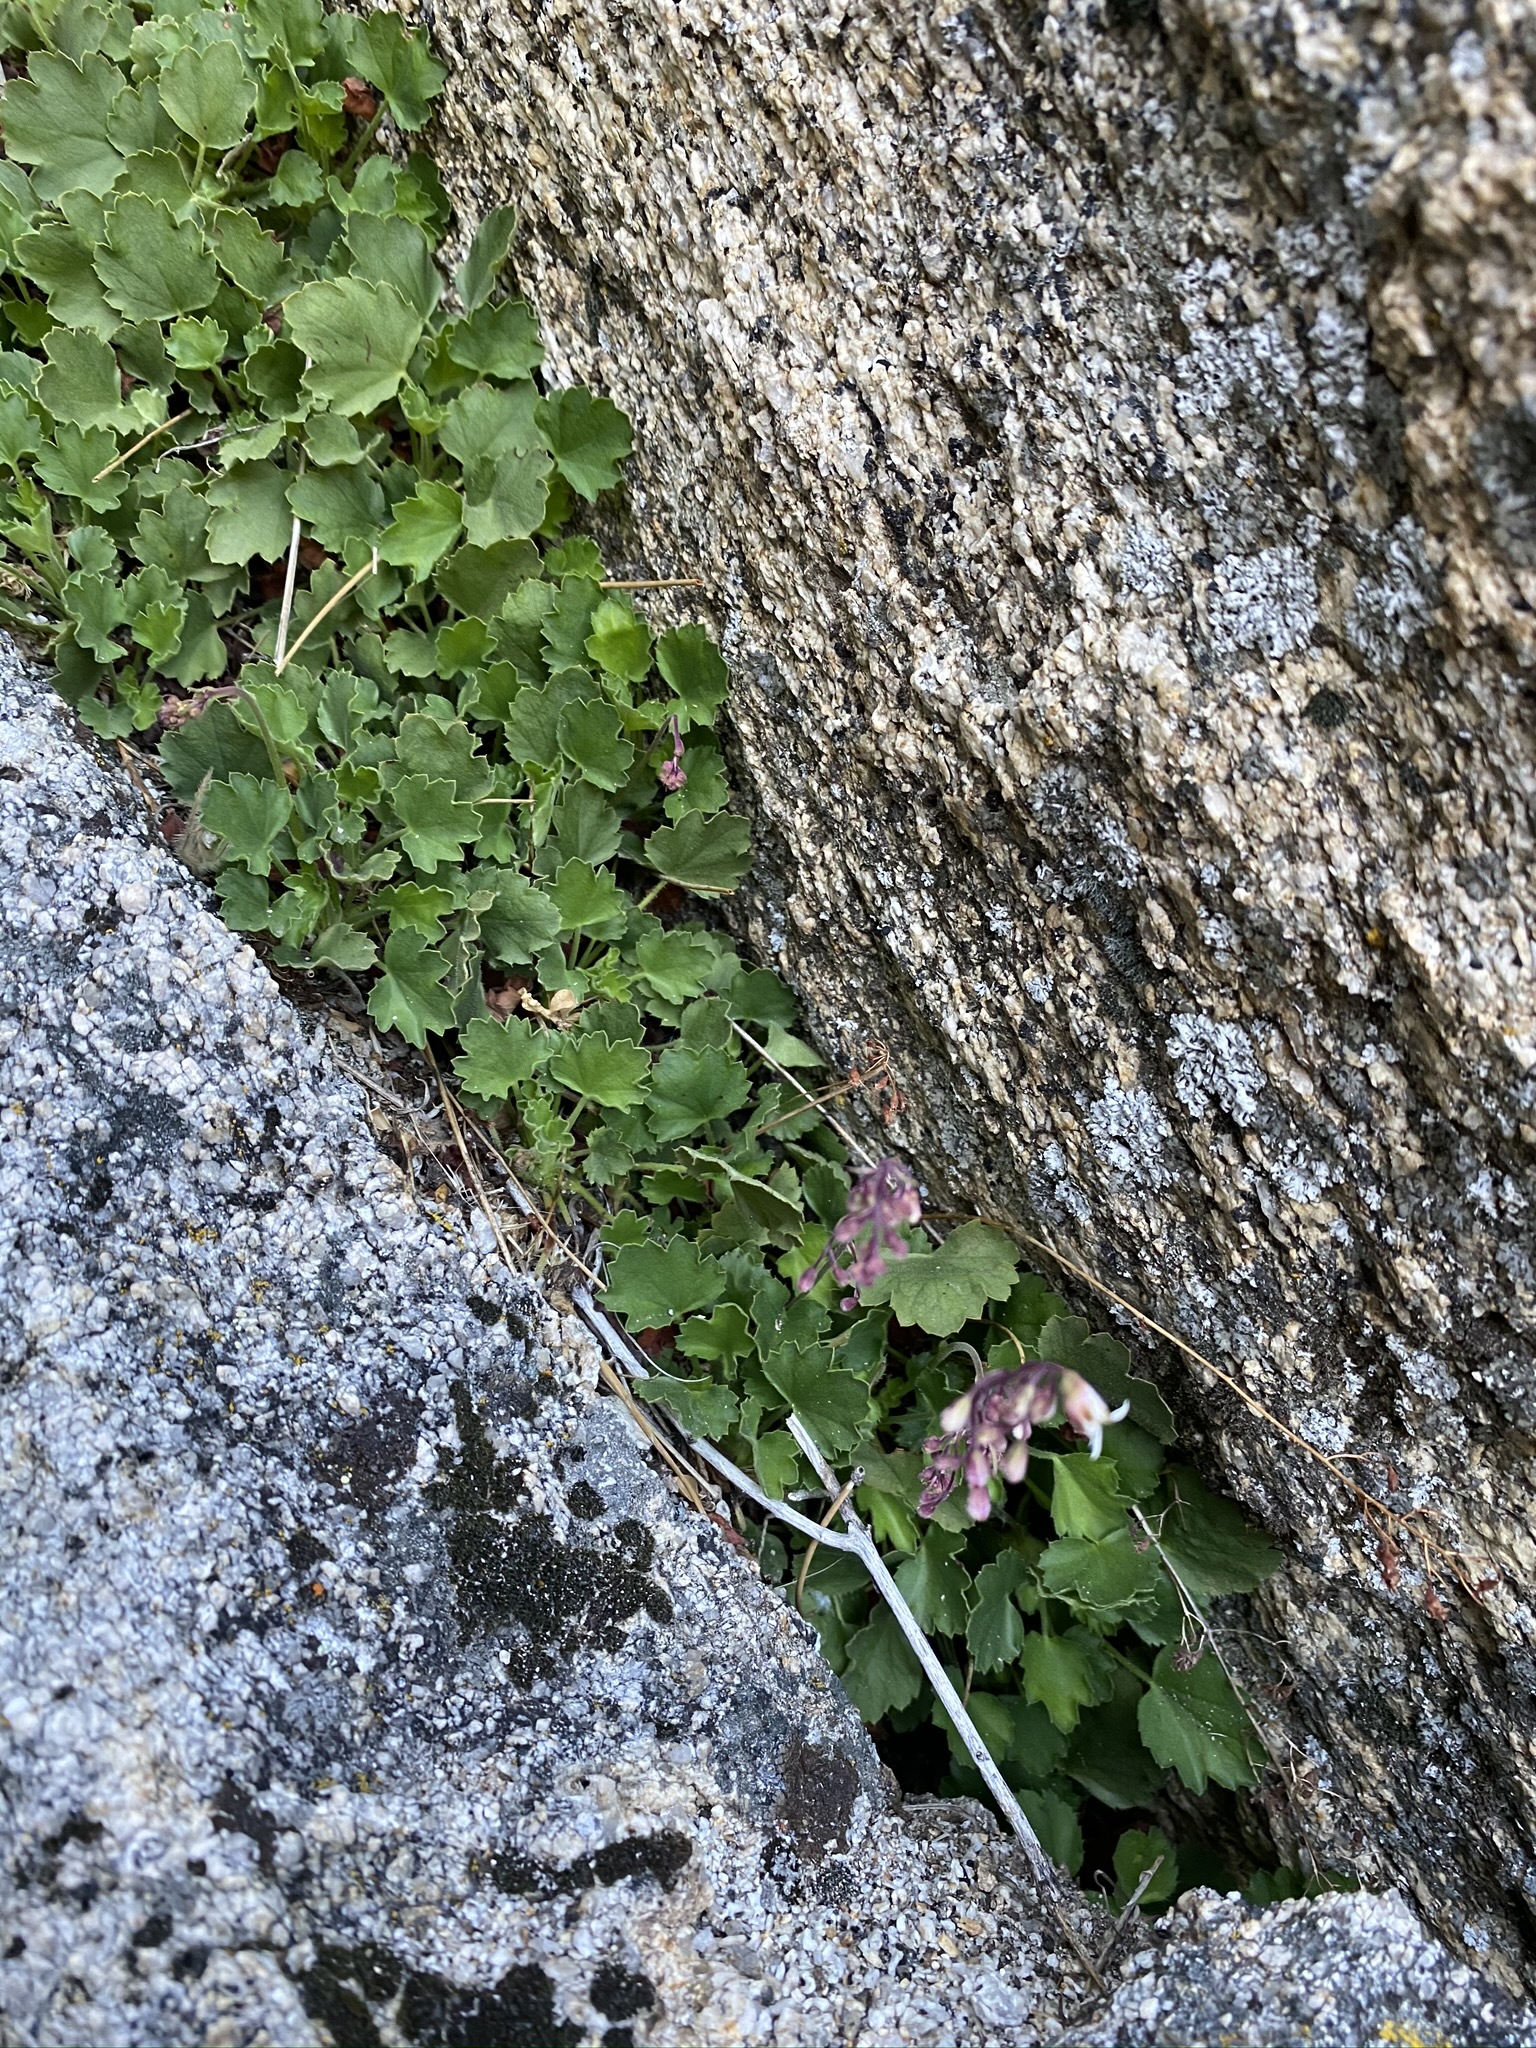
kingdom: Plantae
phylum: Tracheophyta
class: Magnoliopsida
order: Saxifragales
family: Saxifragaceae
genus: Heuchera
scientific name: Heuchera rubescens
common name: Jack-o'the-rocks
